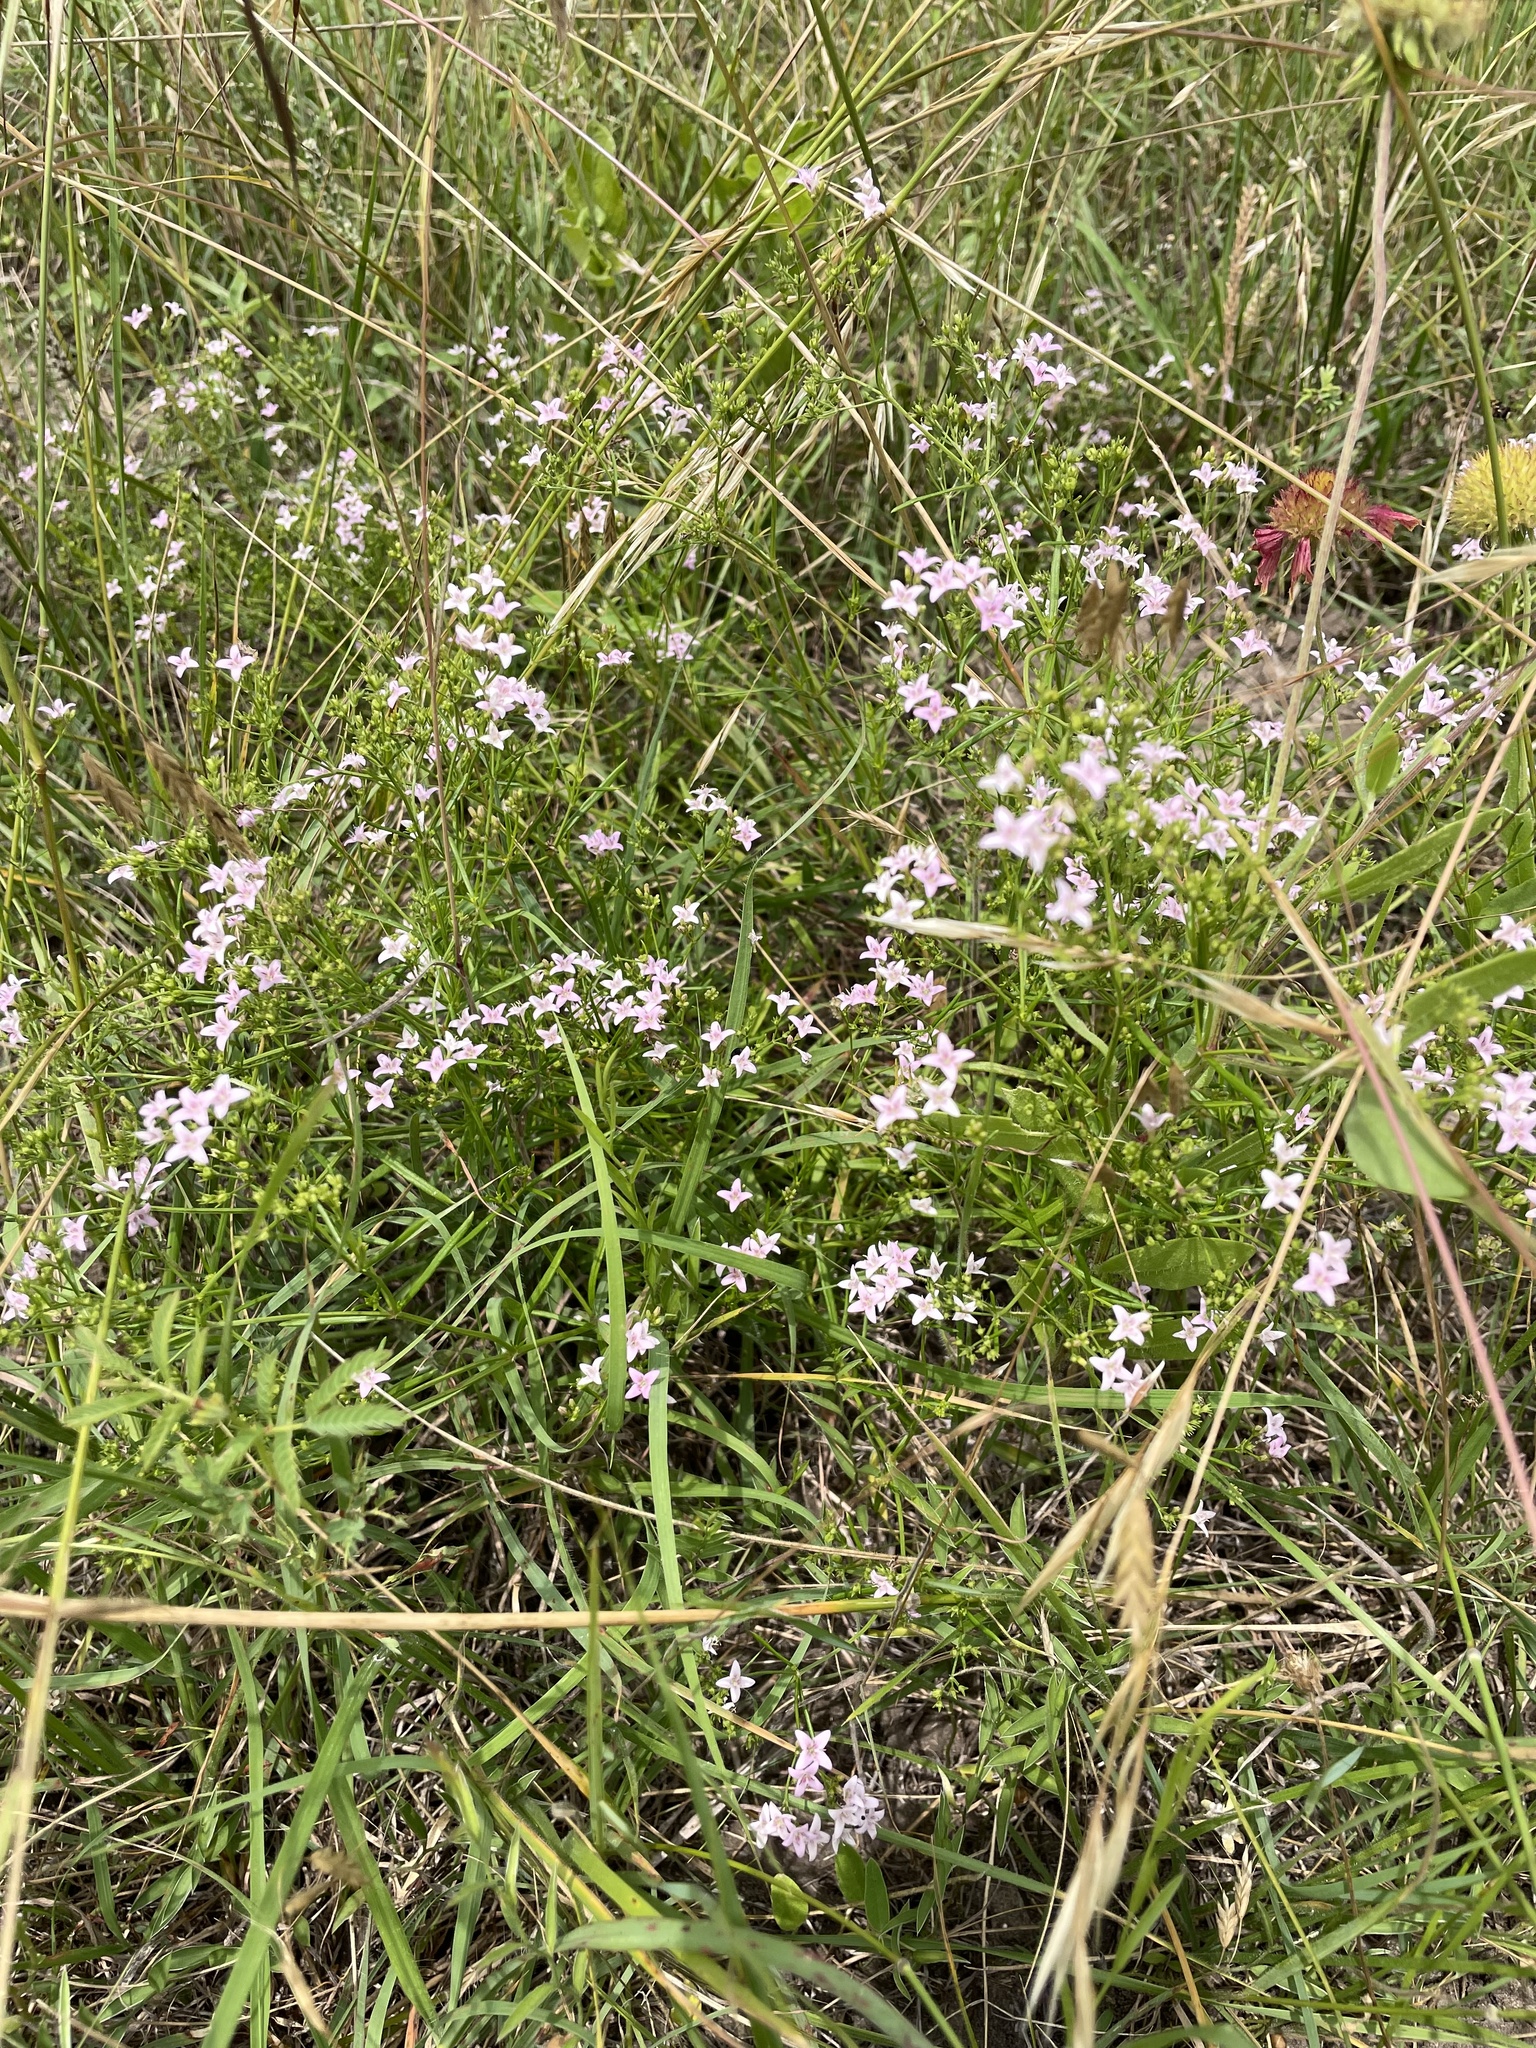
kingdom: Plantae
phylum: Tracheophyta
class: Magnoliopsida
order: Gentianales
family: Rubiaceae
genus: Stenaria
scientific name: Stenaria nigricans
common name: Diamondflowers
